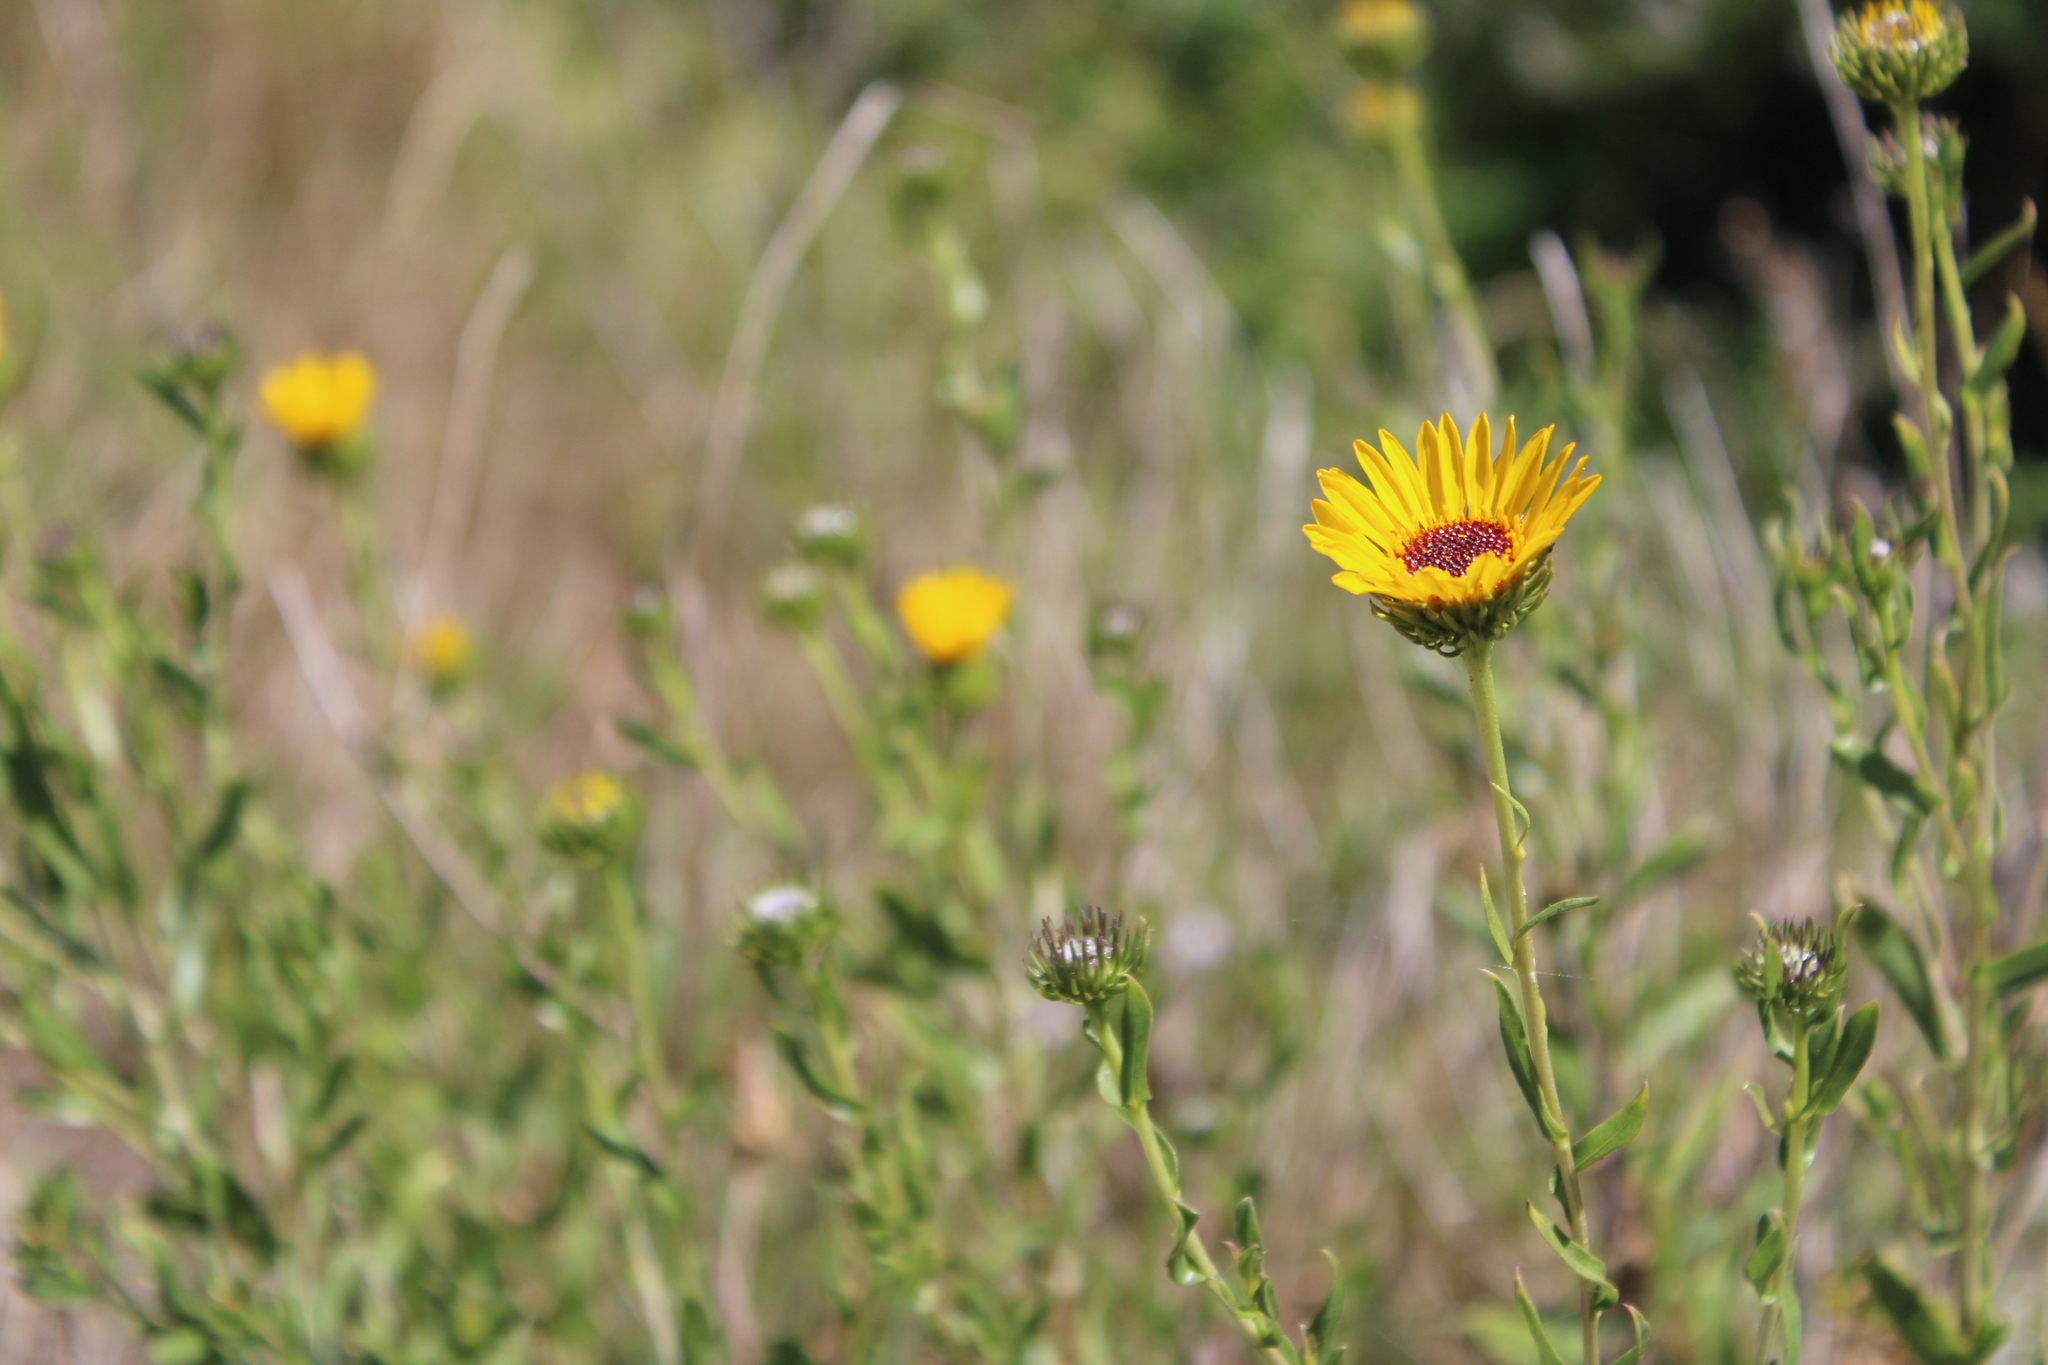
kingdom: Plantae
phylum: Tracheophyta
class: Magnoliopsida
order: Asterales
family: Asteraceae
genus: Grindelia
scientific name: Grindelia pulchella
